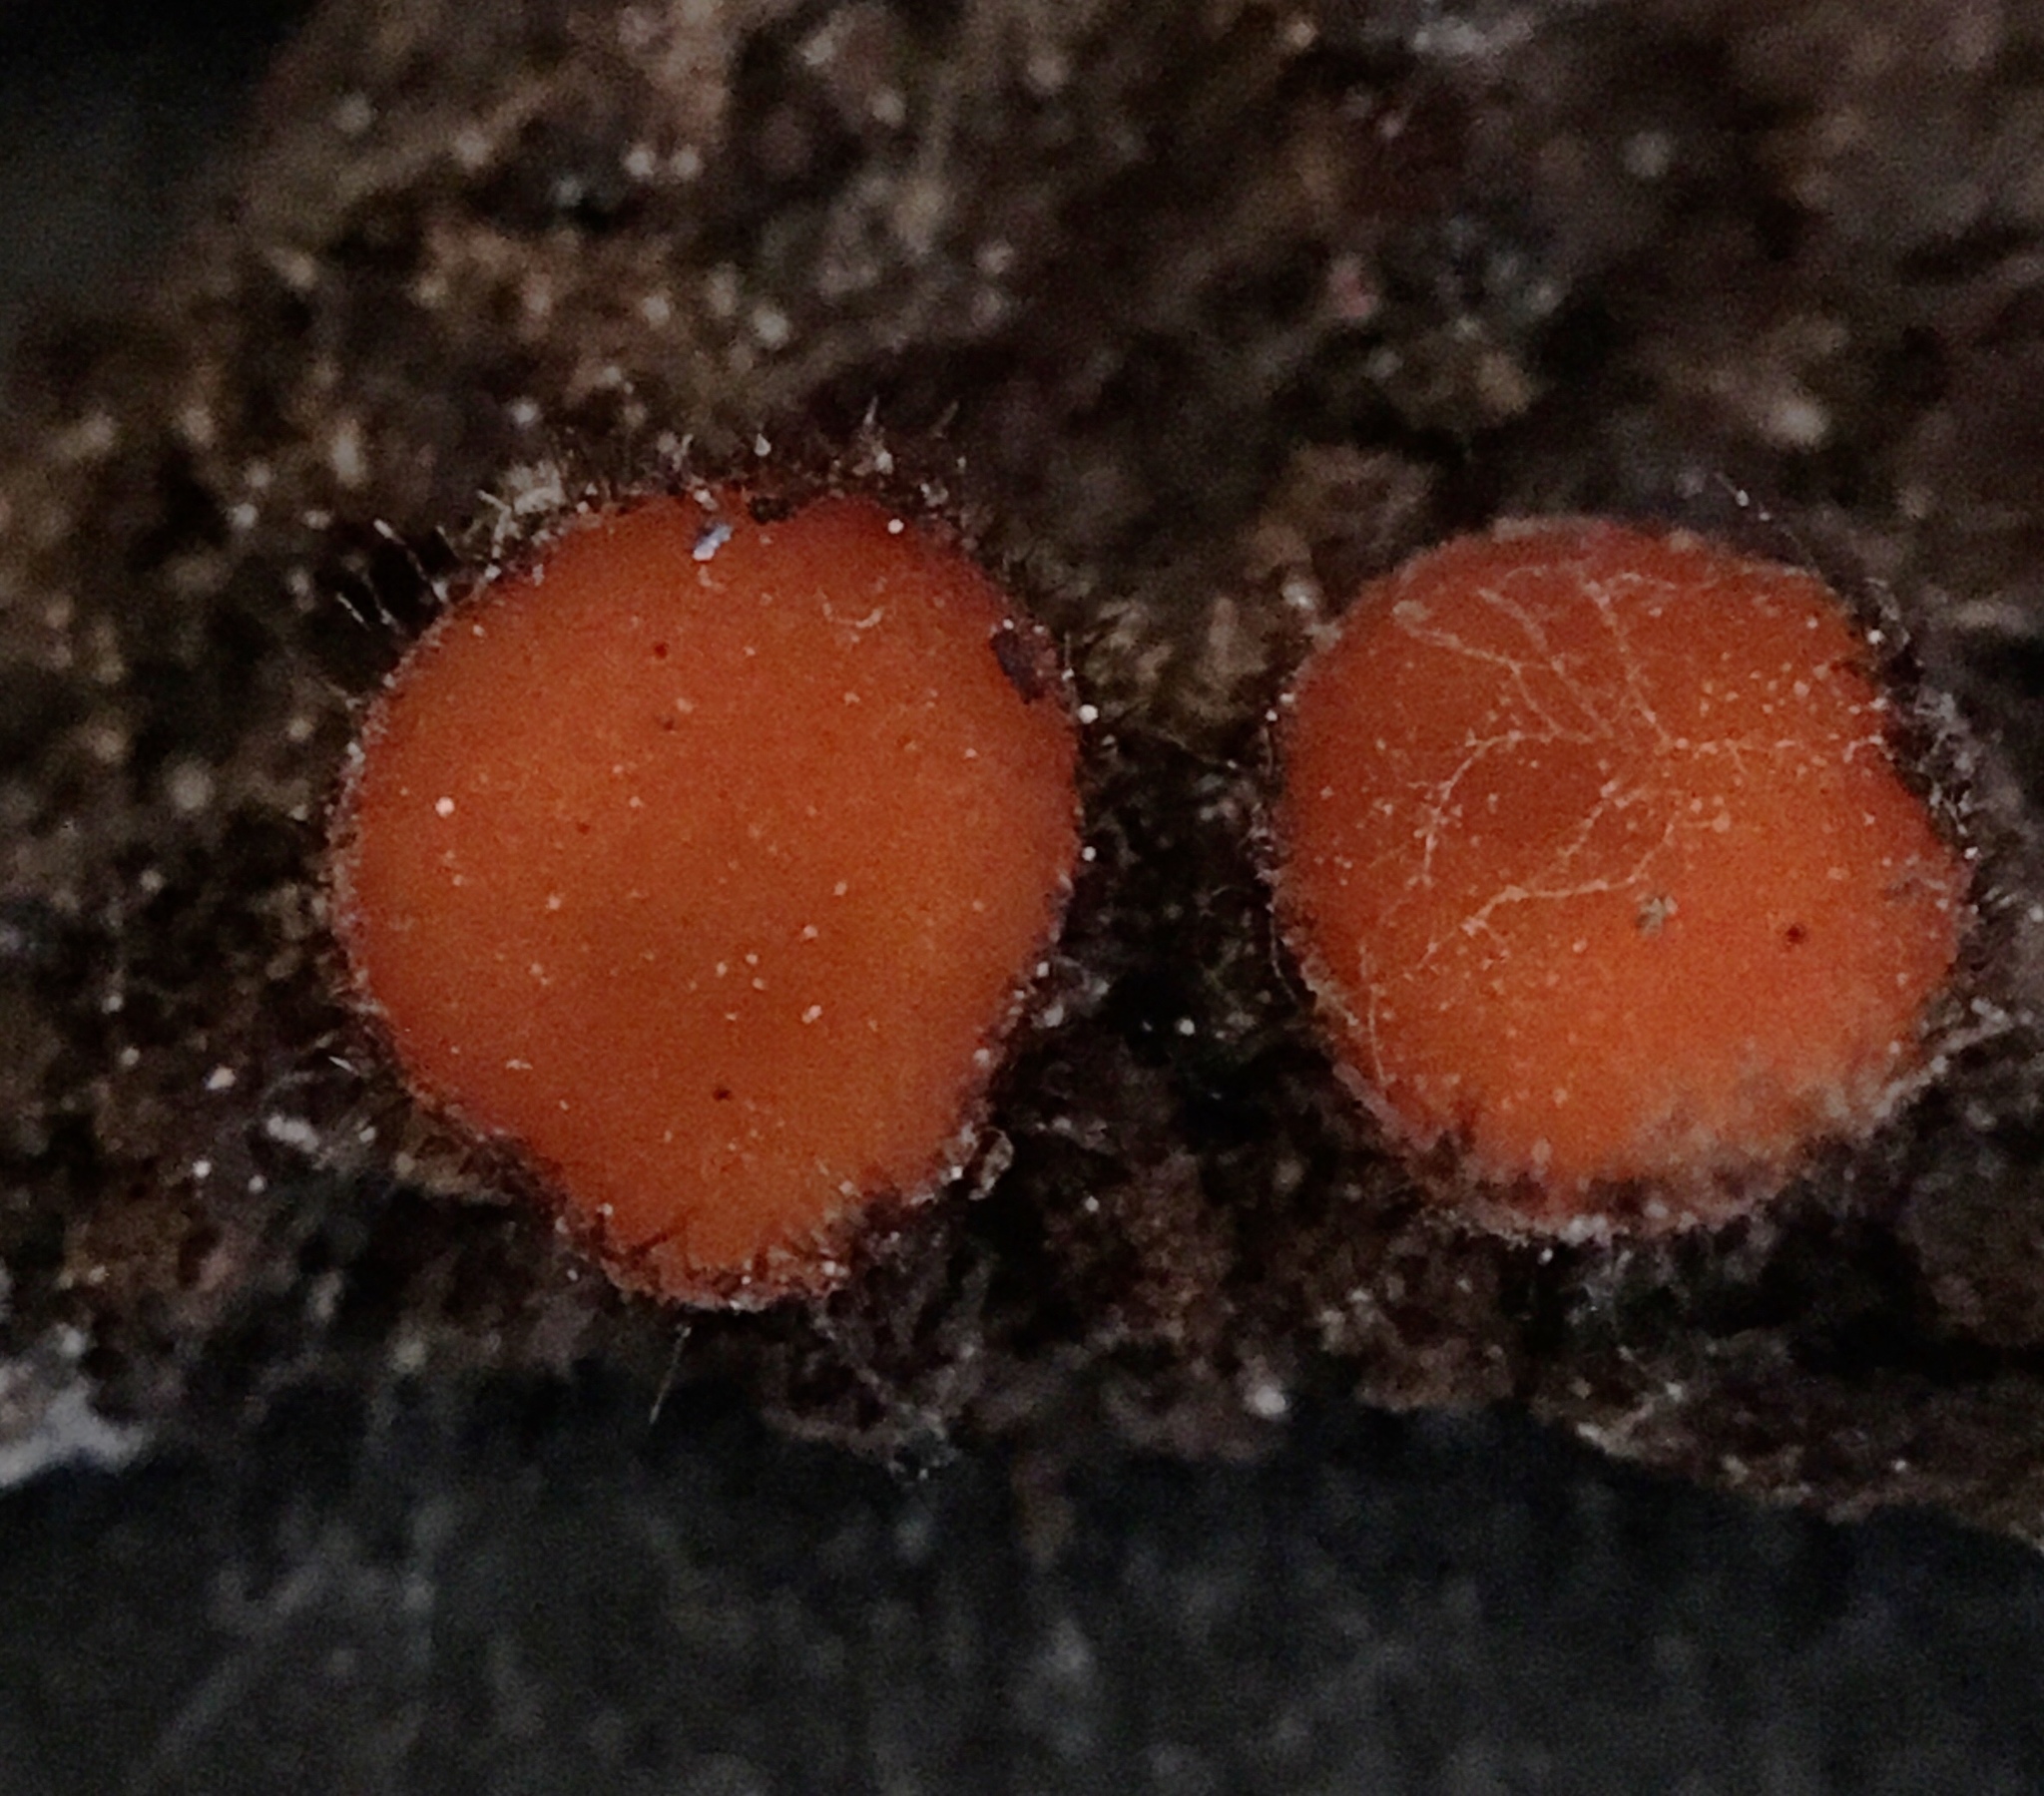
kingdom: Fungi
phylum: Ascomycota
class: Pezizomycetes
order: Pezizales
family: Pyronemataceae
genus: Scutellinia
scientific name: Scutellinia olivascens
